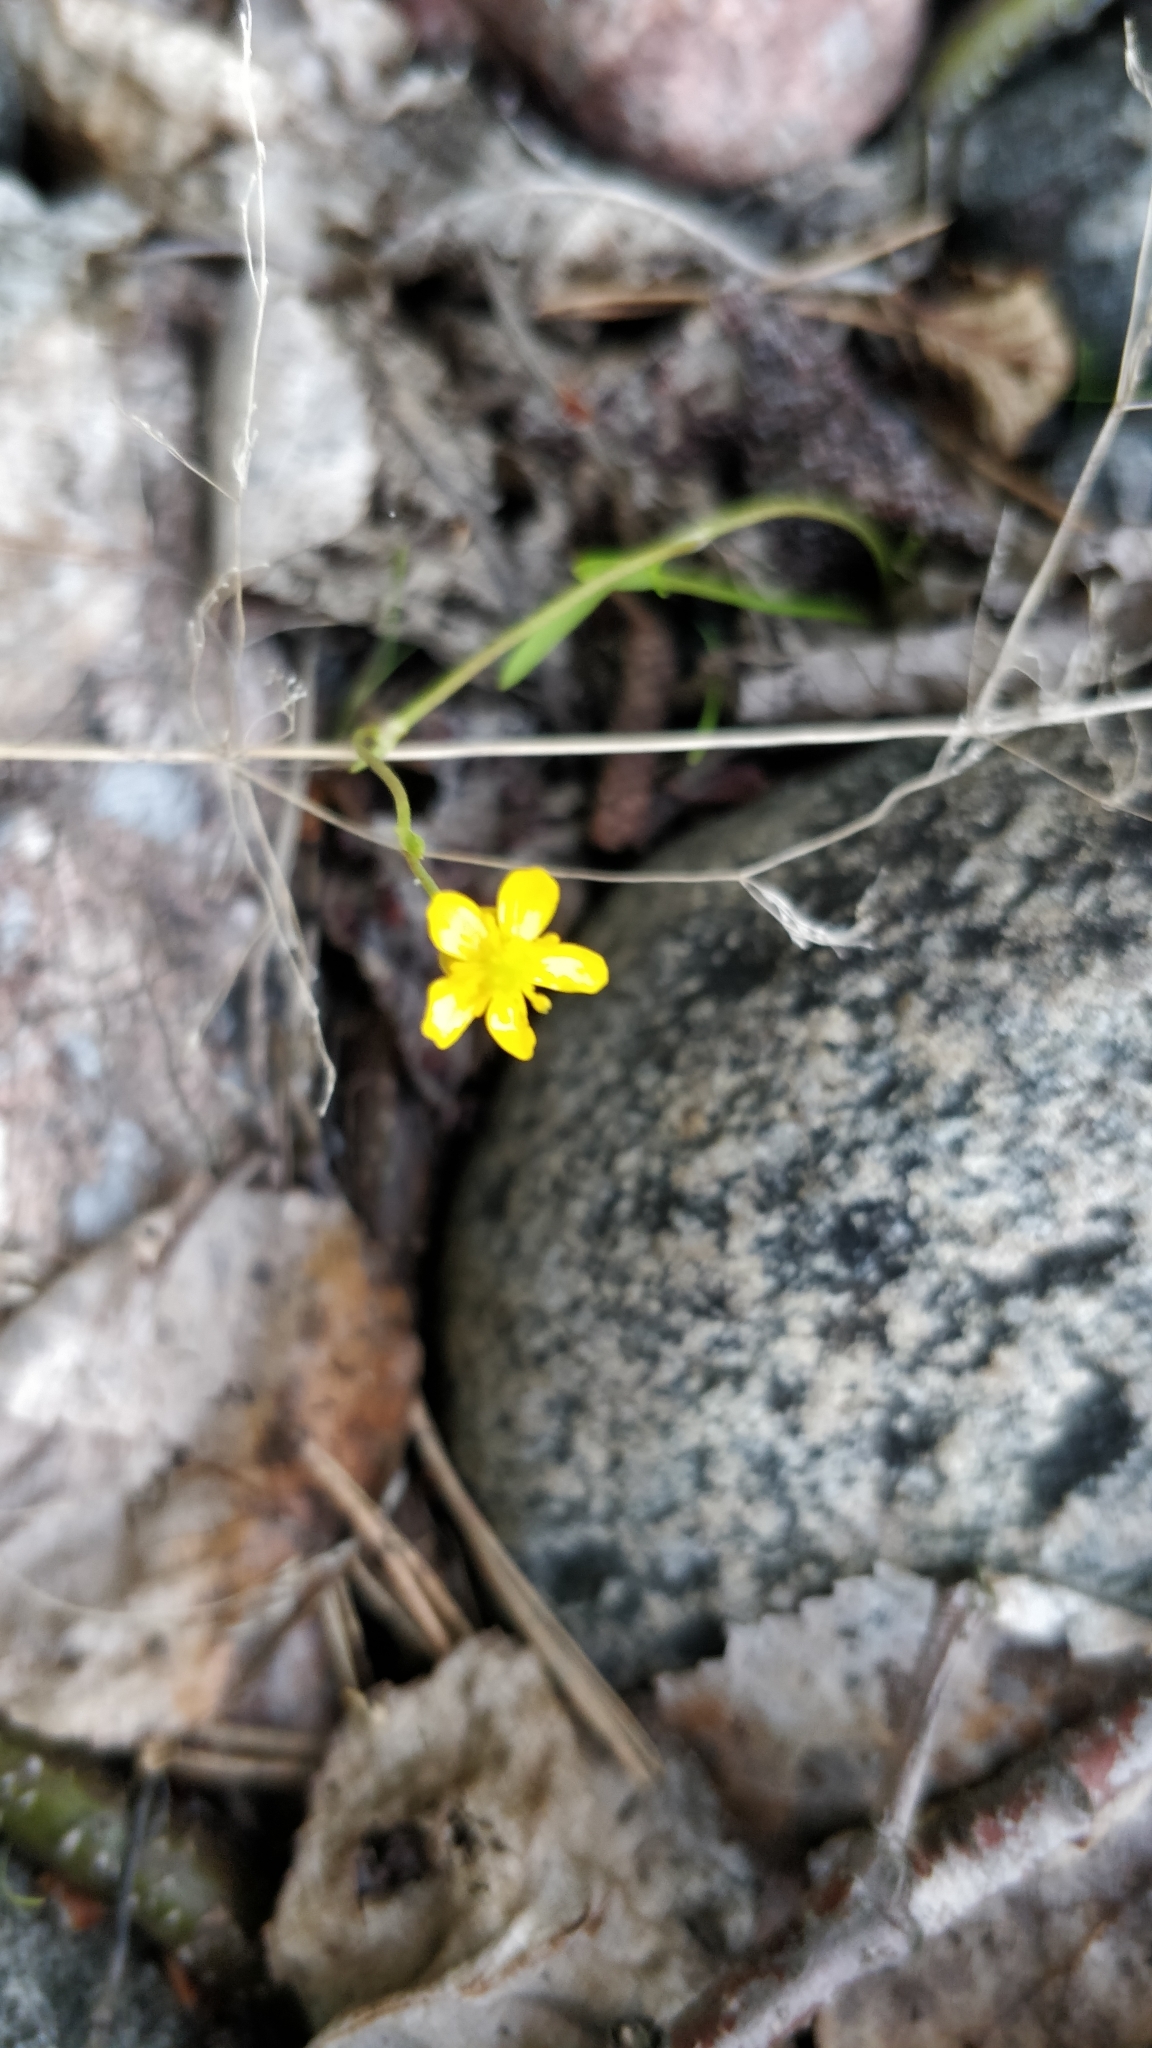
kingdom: Plantae
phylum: Tracheophyta
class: Magnoliopsida
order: Ranunculales
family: Ranunculaceae
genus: Ranunculus
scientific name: Ranunculus reptans
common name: Creeping spearwort
